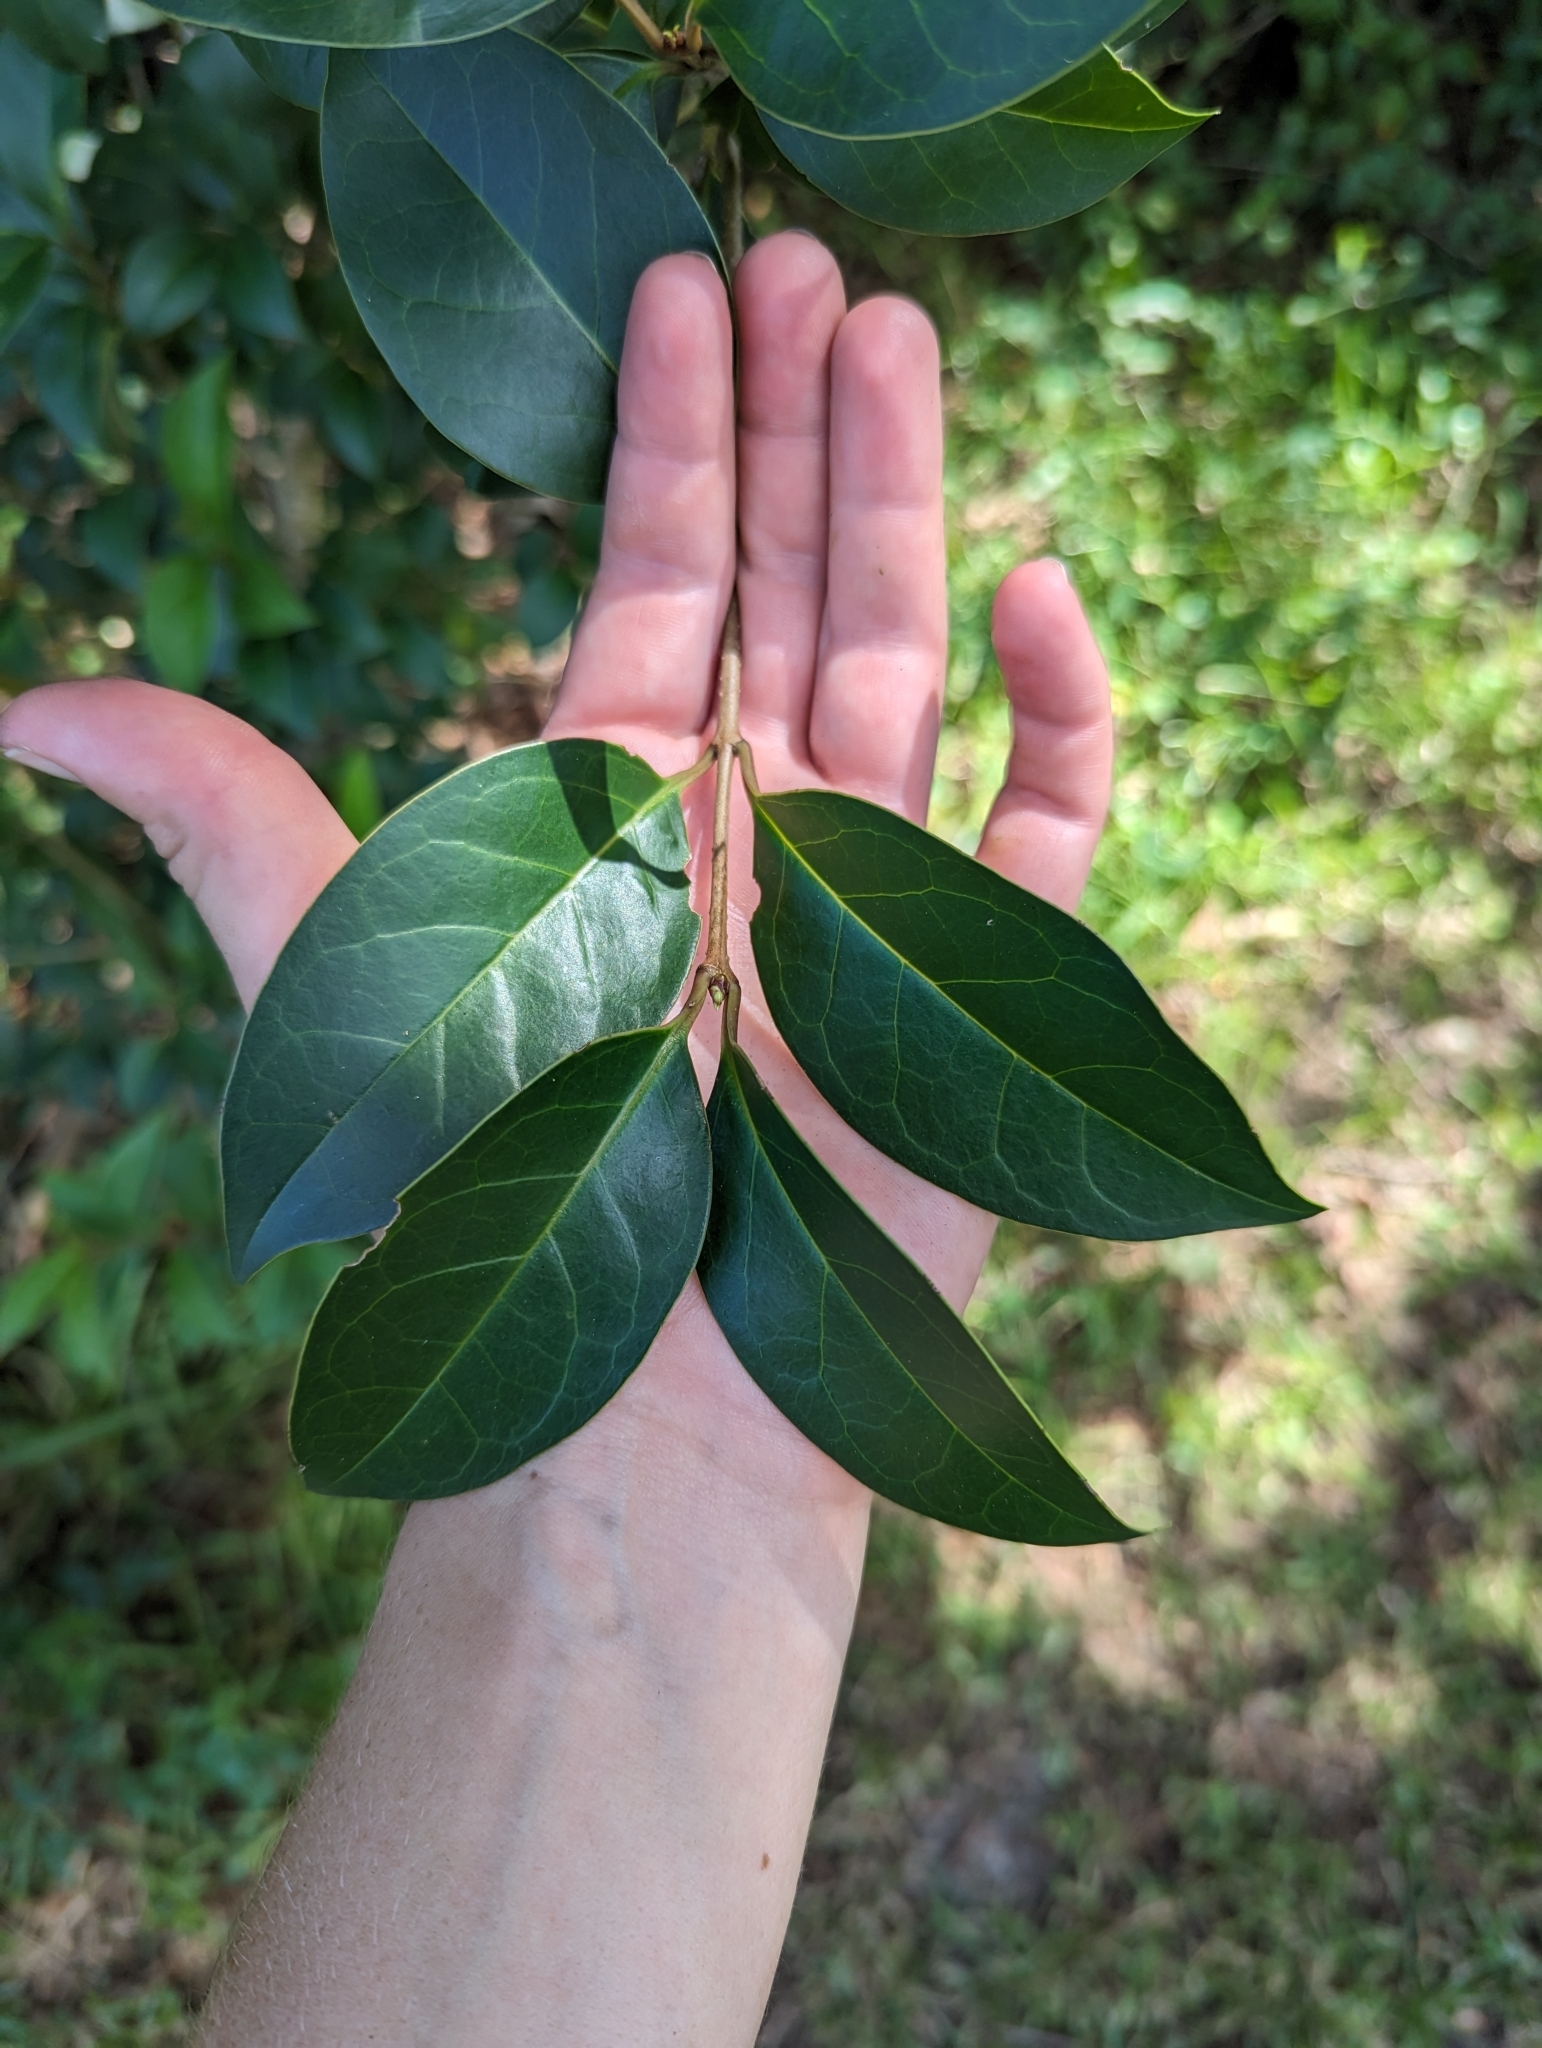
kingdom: Plantae
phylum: Tracheophyta
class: Magnoliopsida
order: Lamiales
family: Oleaceae
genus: Ligustrum
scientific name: Ligustrum lucidum
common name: Glossy privet
